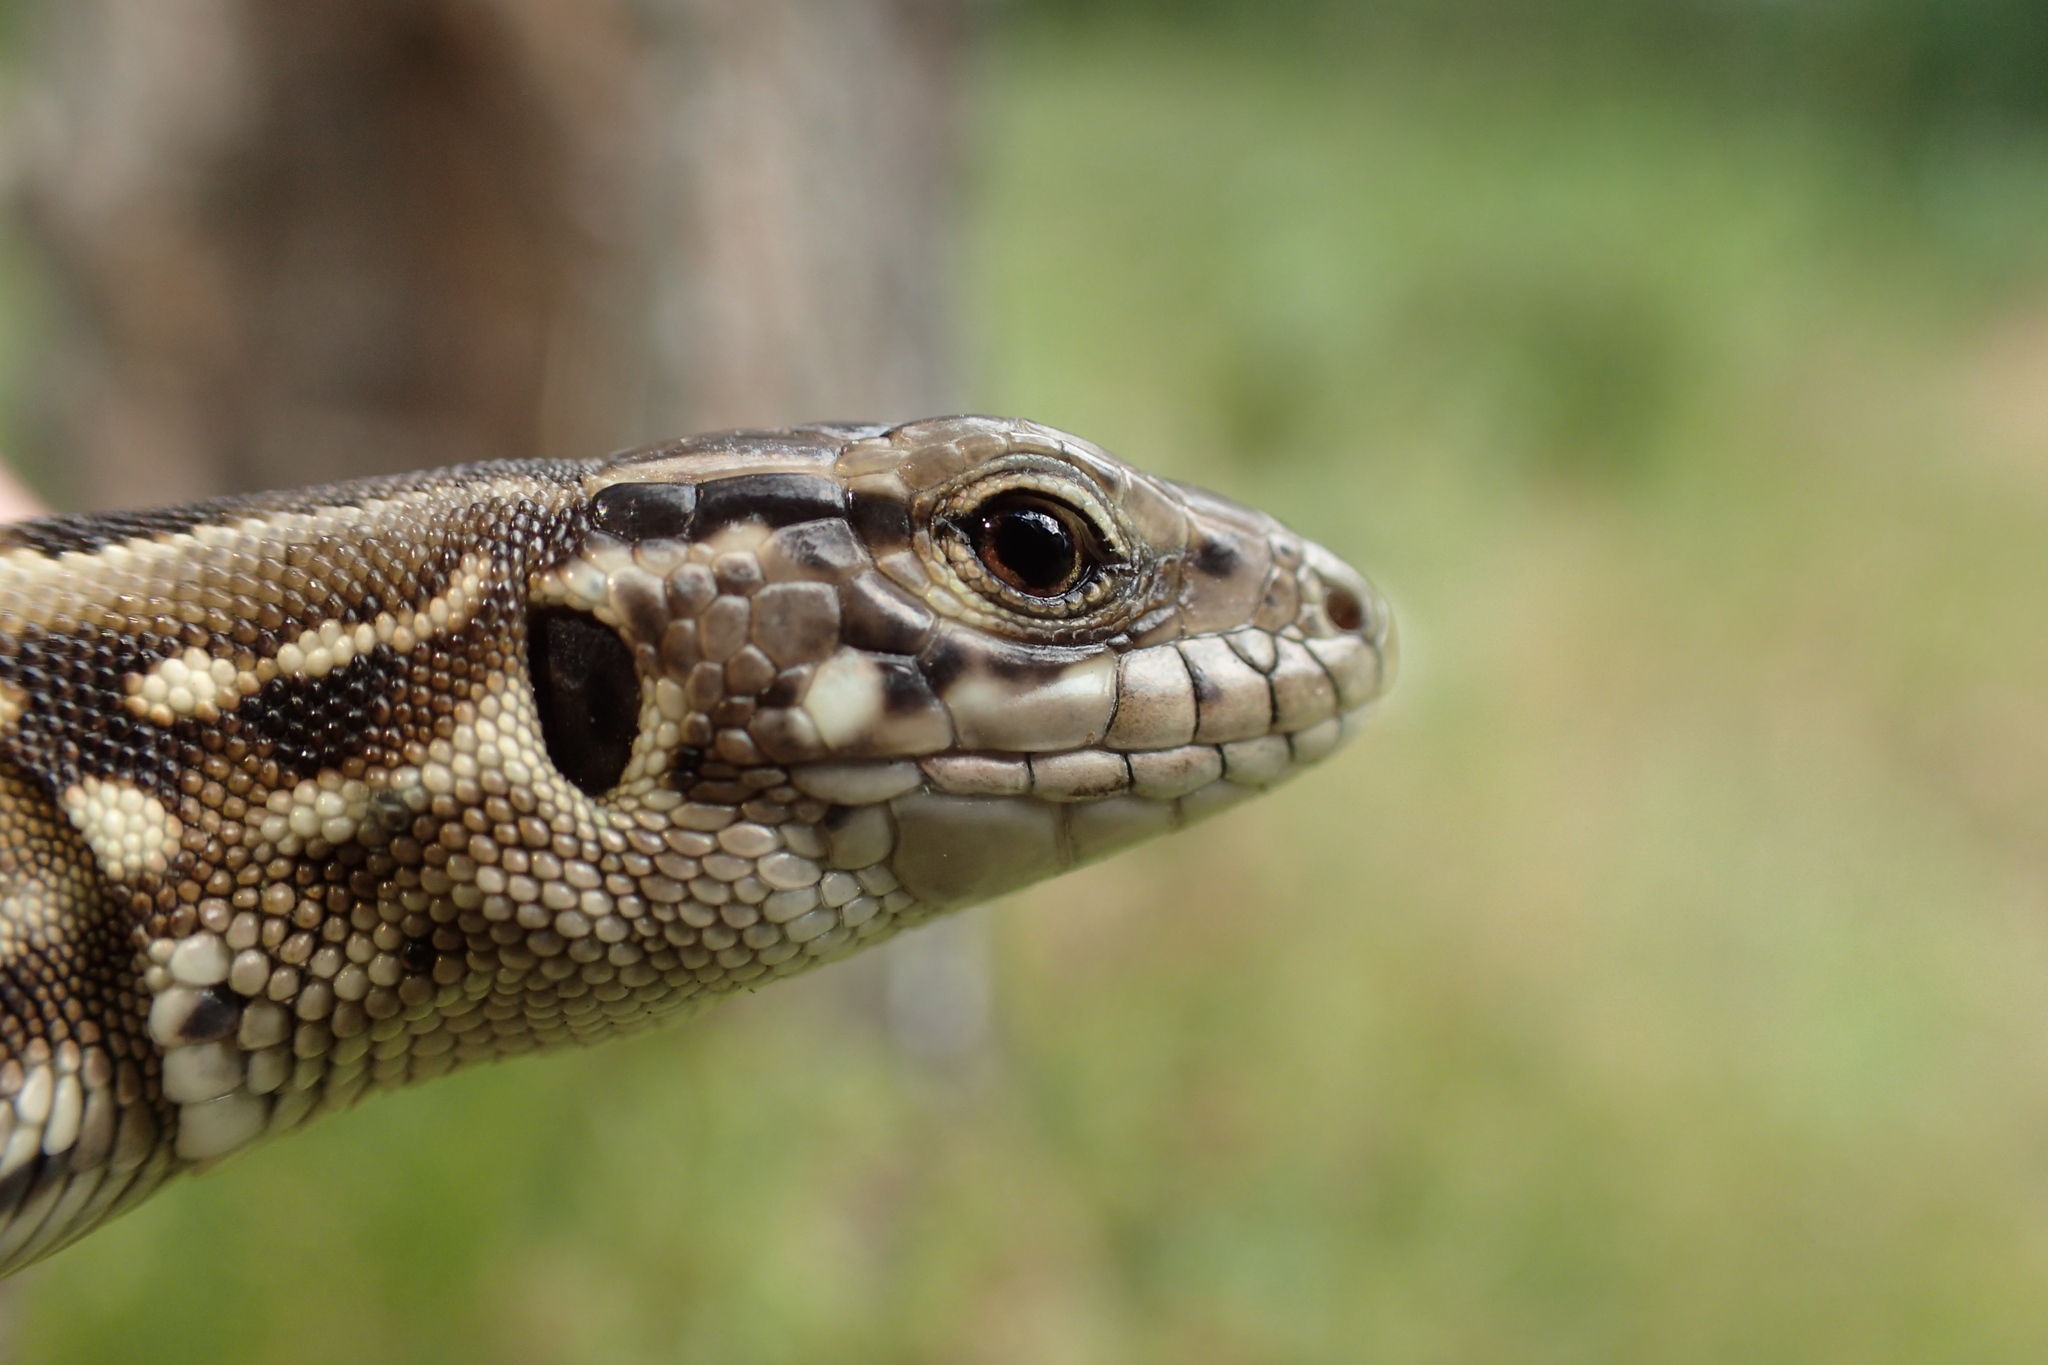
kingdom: Animalia
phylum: Chordata
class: Squamata
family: Lacertidae
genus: Lacerta
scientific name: Lacerta agilis
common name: Sand lizard
